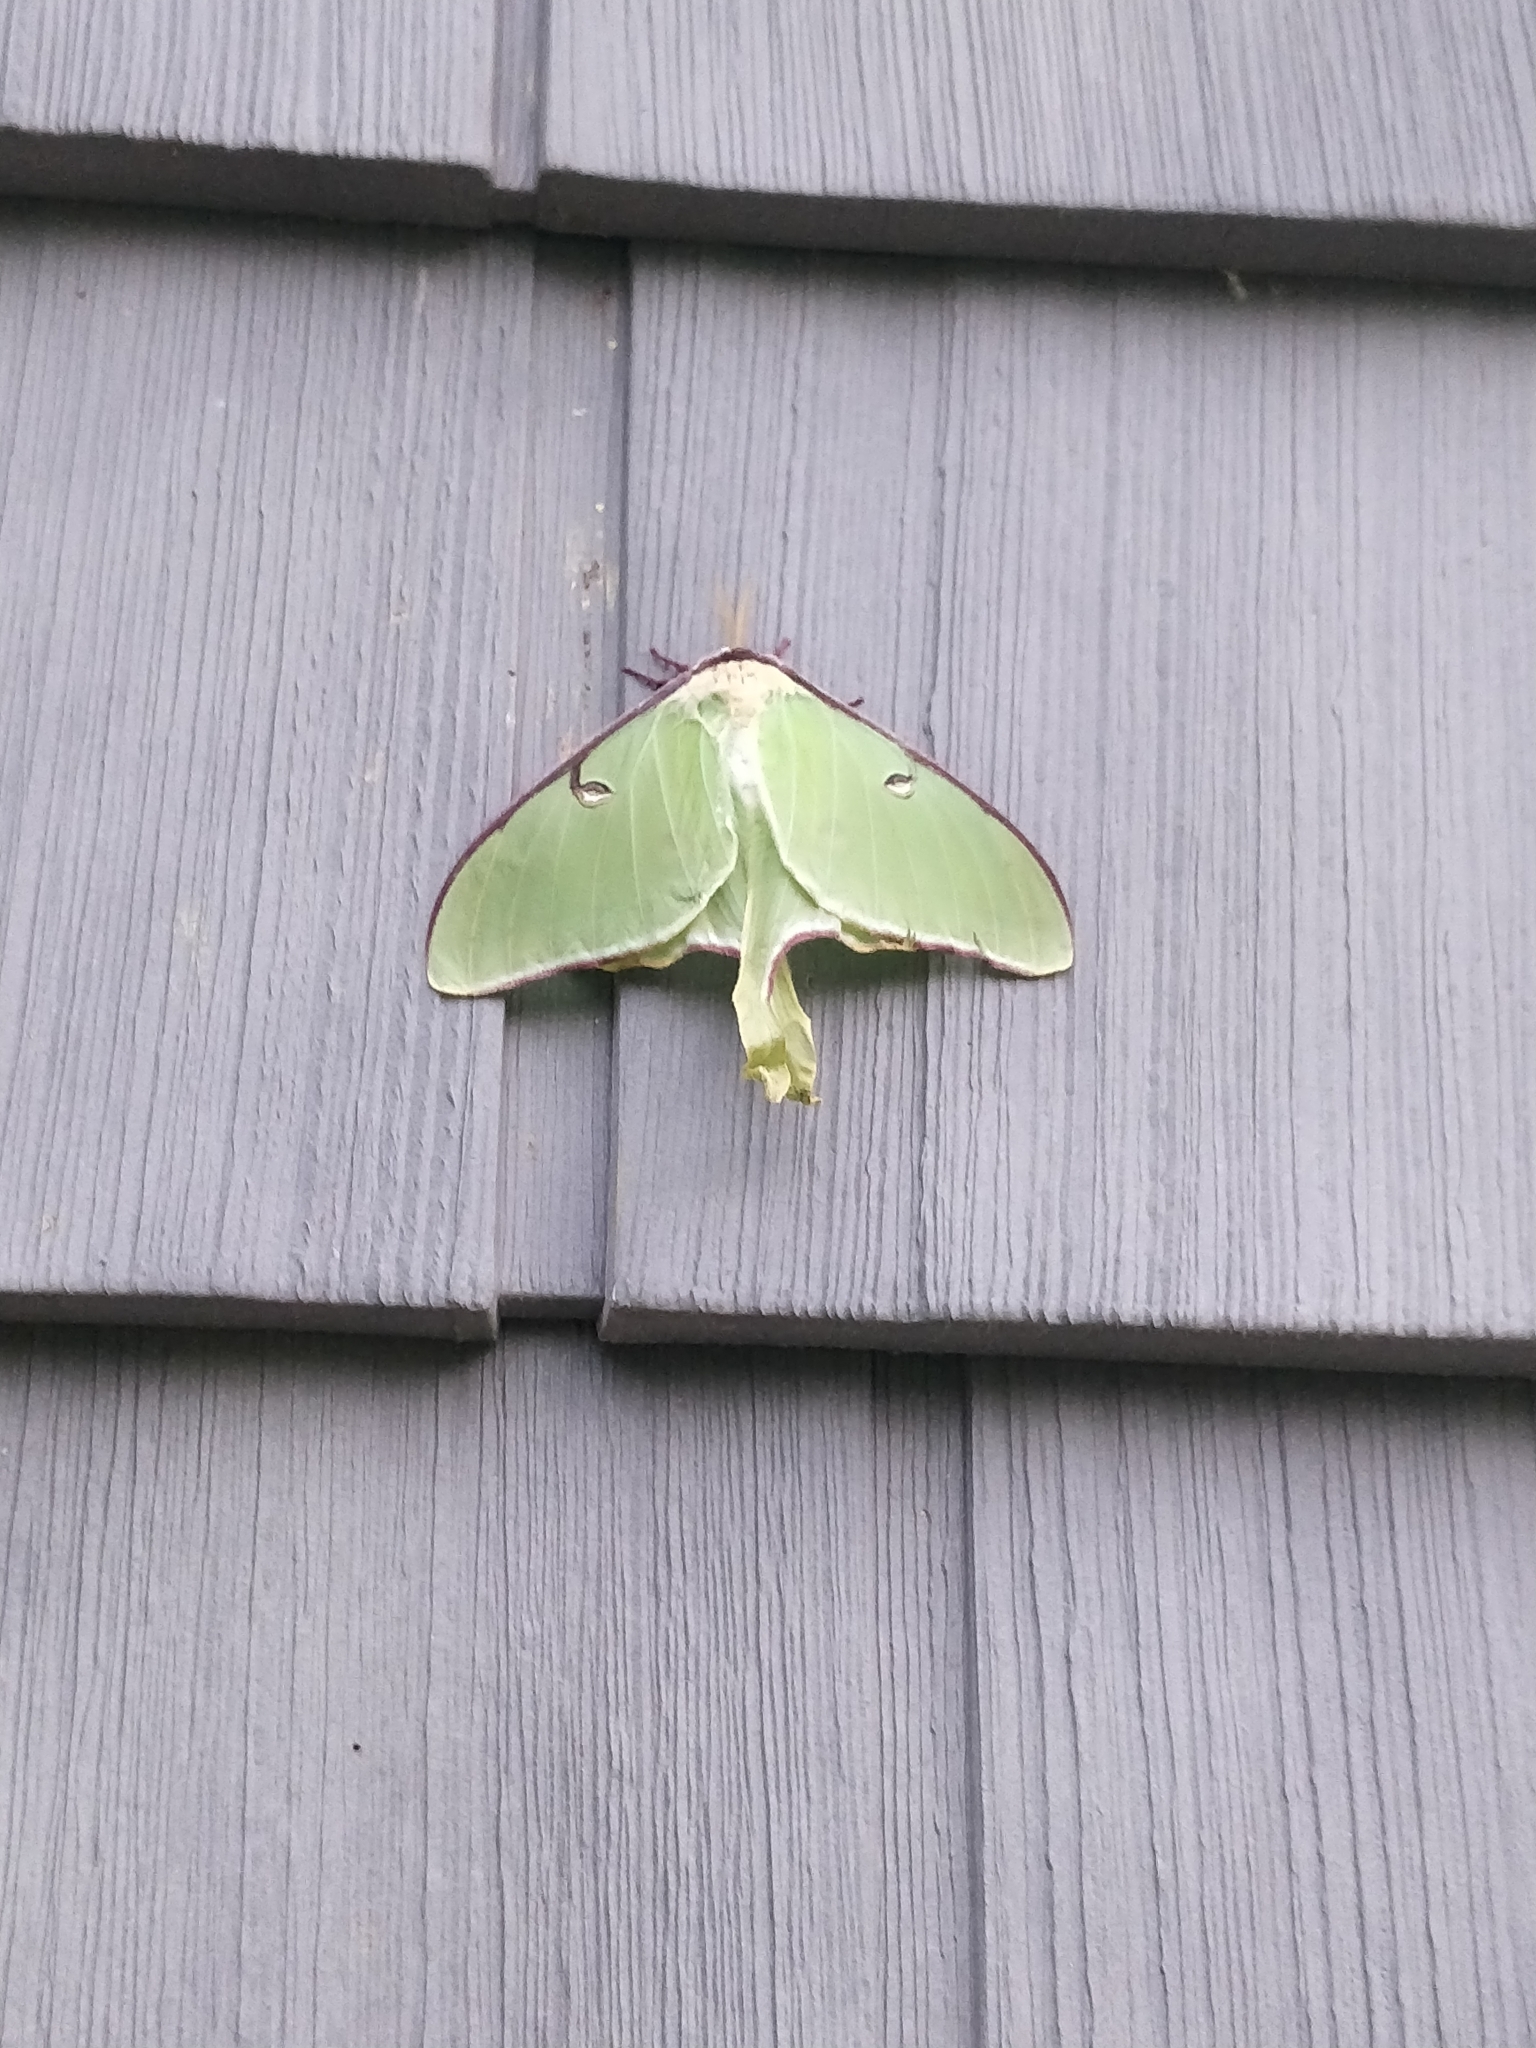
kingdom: Animalia
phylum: Arthropoda
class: Insecta
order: Lepidoptera
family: Saturniidae
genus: Actias
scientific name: Actias luna
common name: Luna moth
